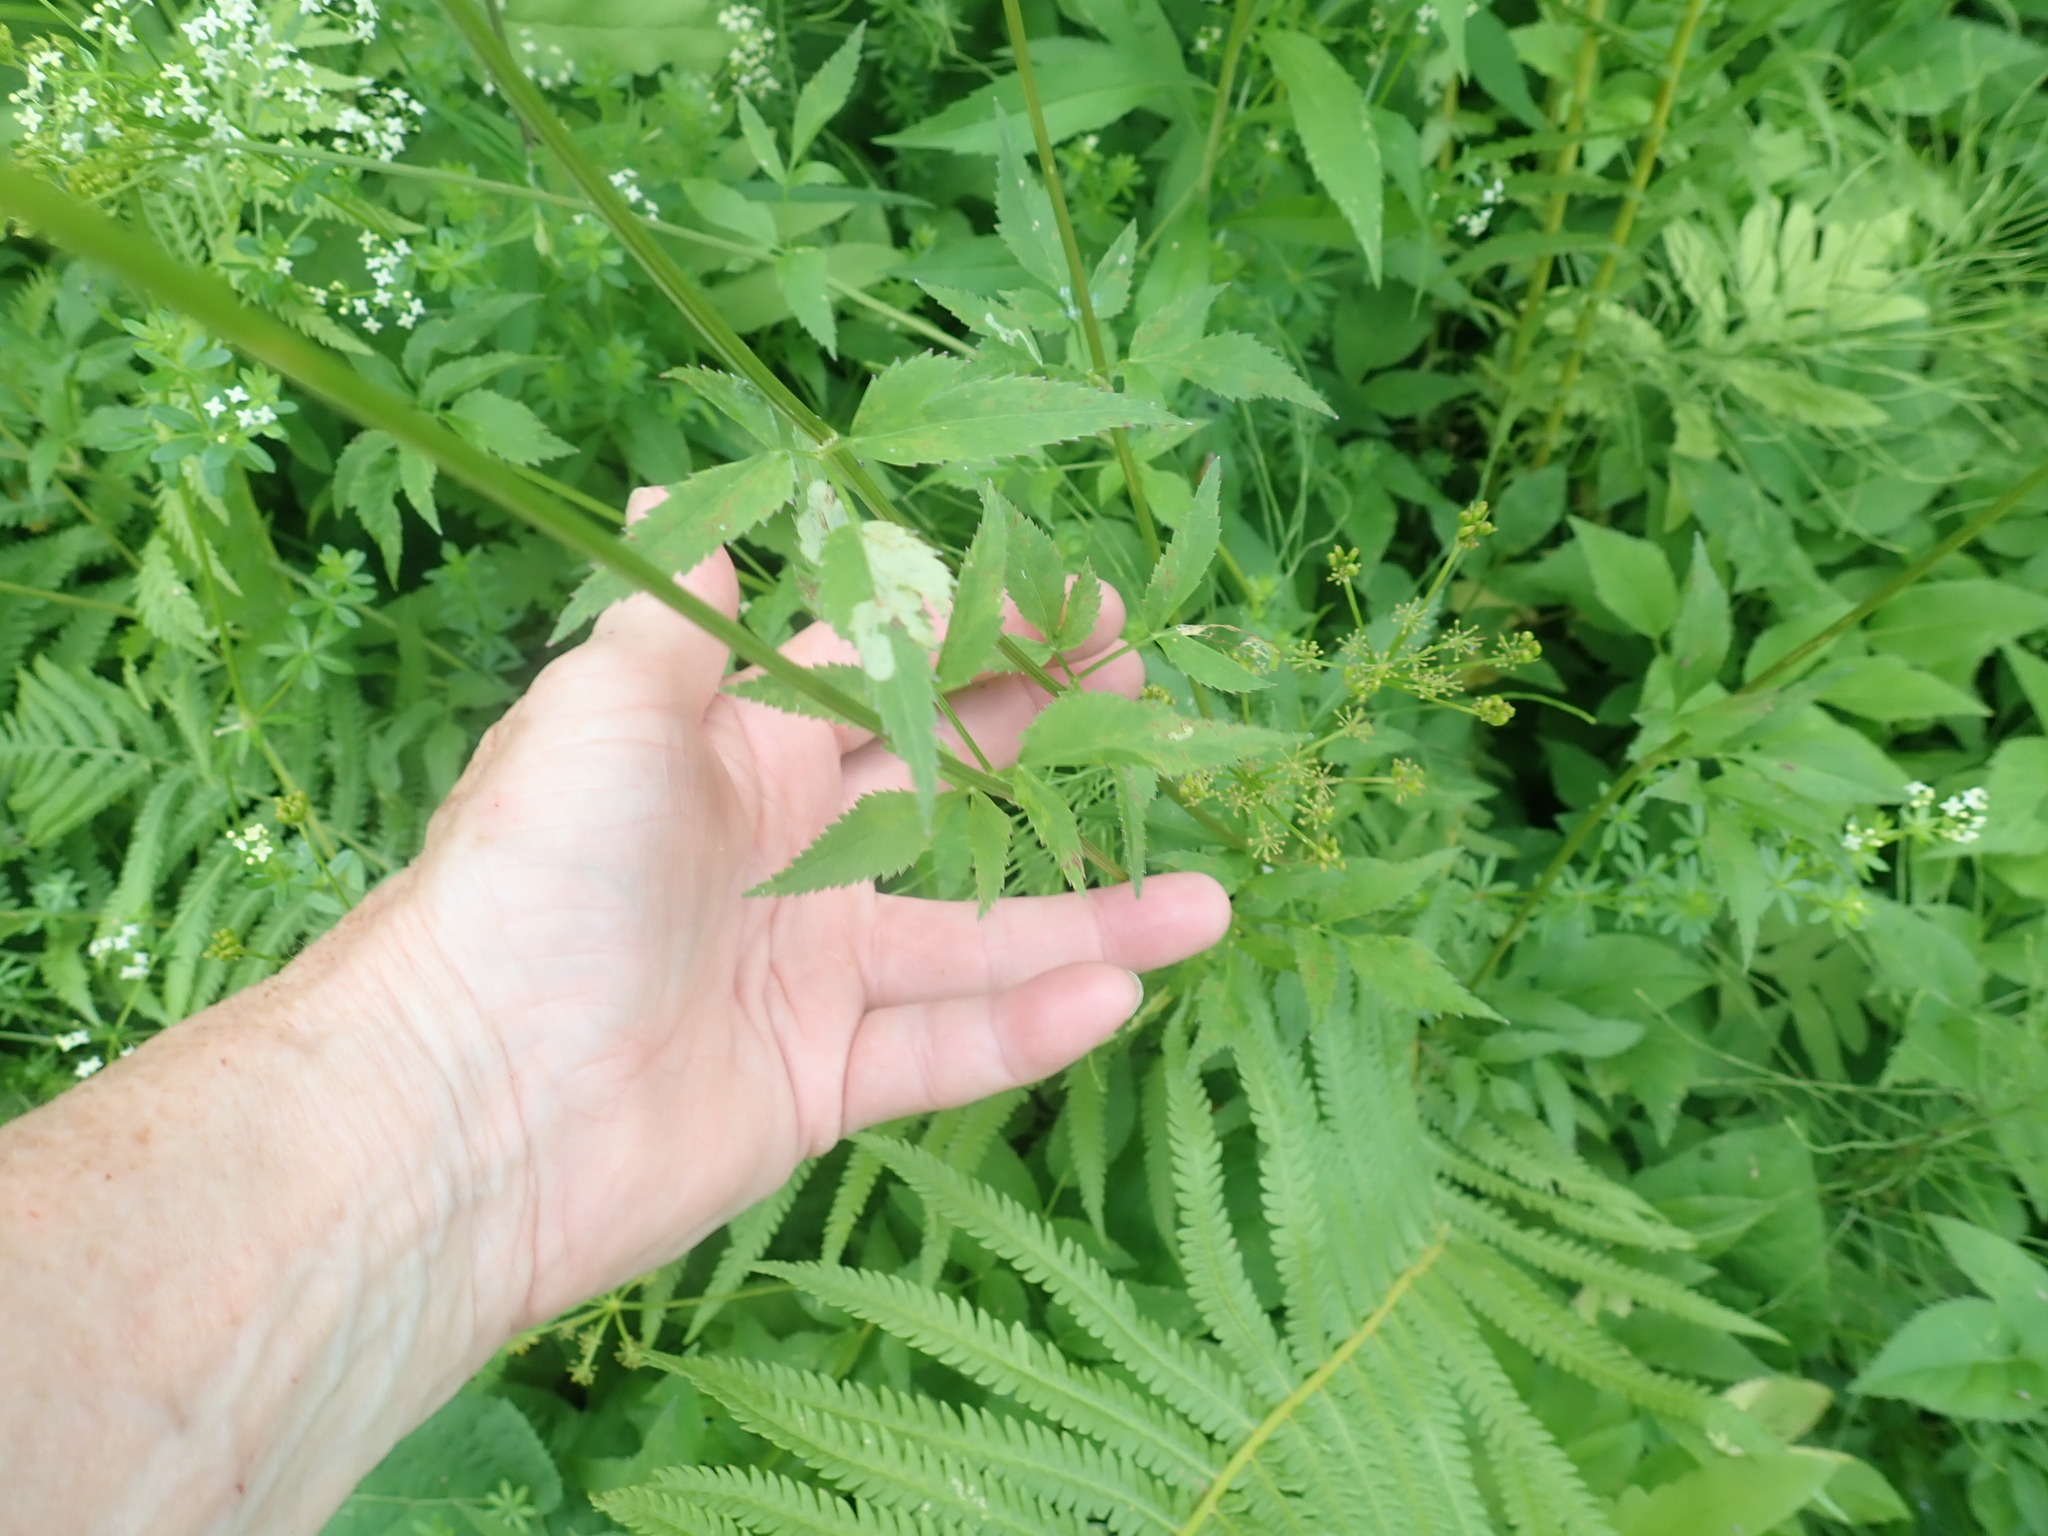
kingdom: Plantae
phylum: Tracheophyta
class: Magnoliopsida
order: Apiales
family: Apiaceae
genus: Zizia
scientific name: Zizia aurea
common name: Golden alexanders
